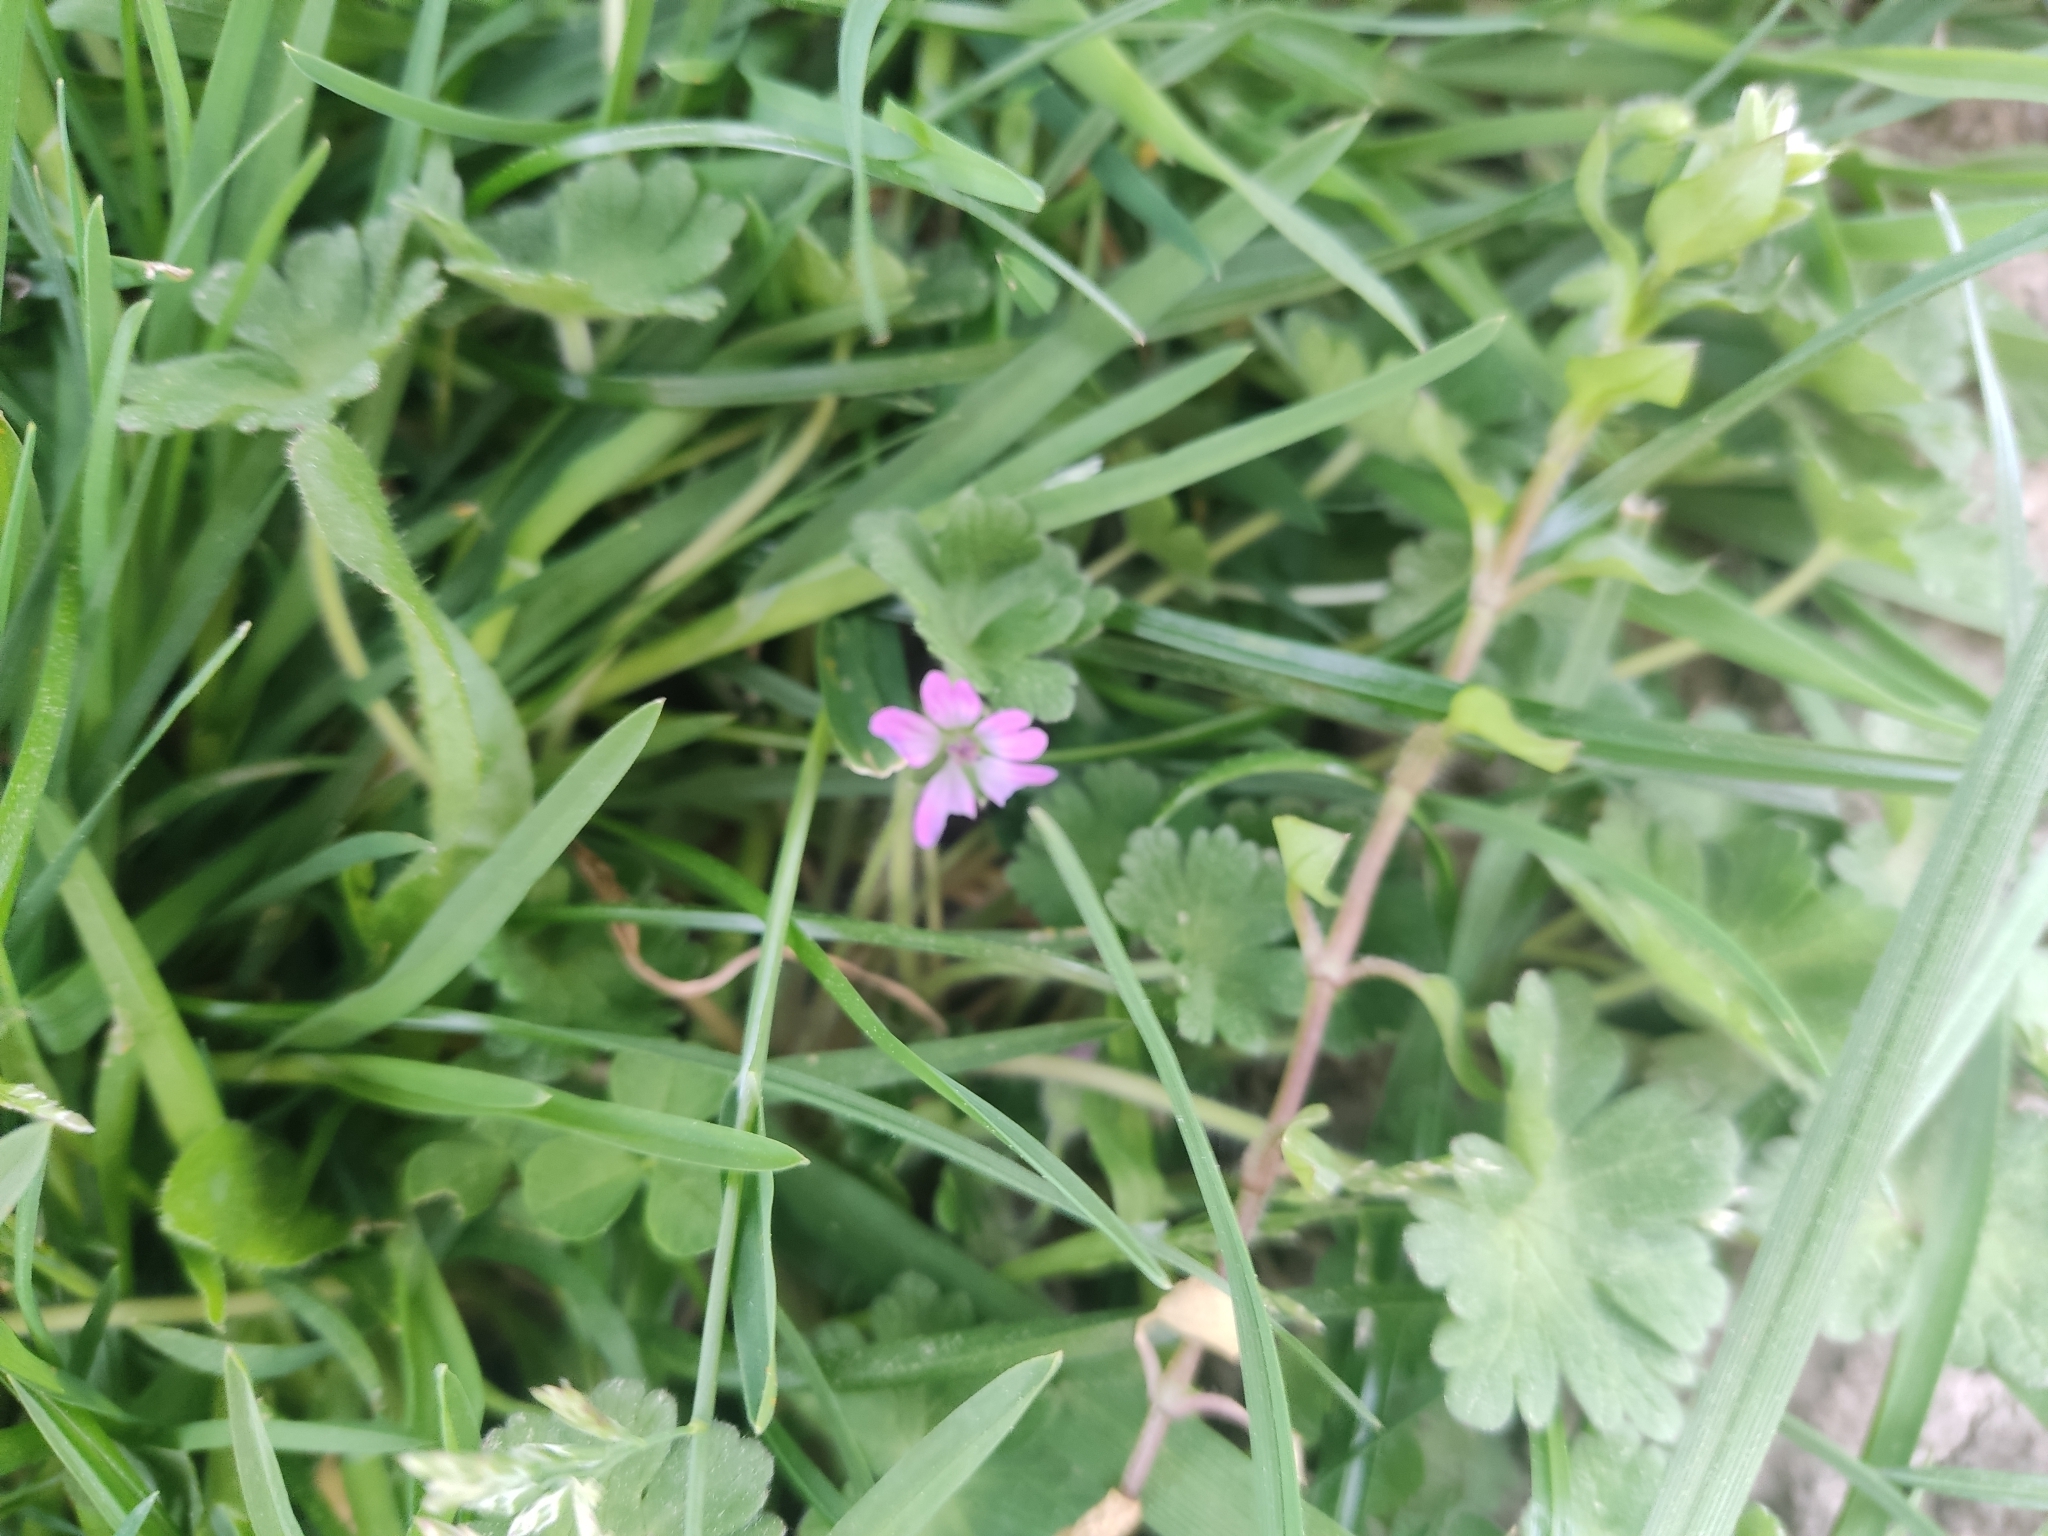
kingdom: Plantae
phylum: Tracheophyta
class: Magnoliopsida
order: Geraniales
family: Geraniaceae
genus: Geranium
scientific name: Geranium molle
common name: Dove's-foot crane's-bill
